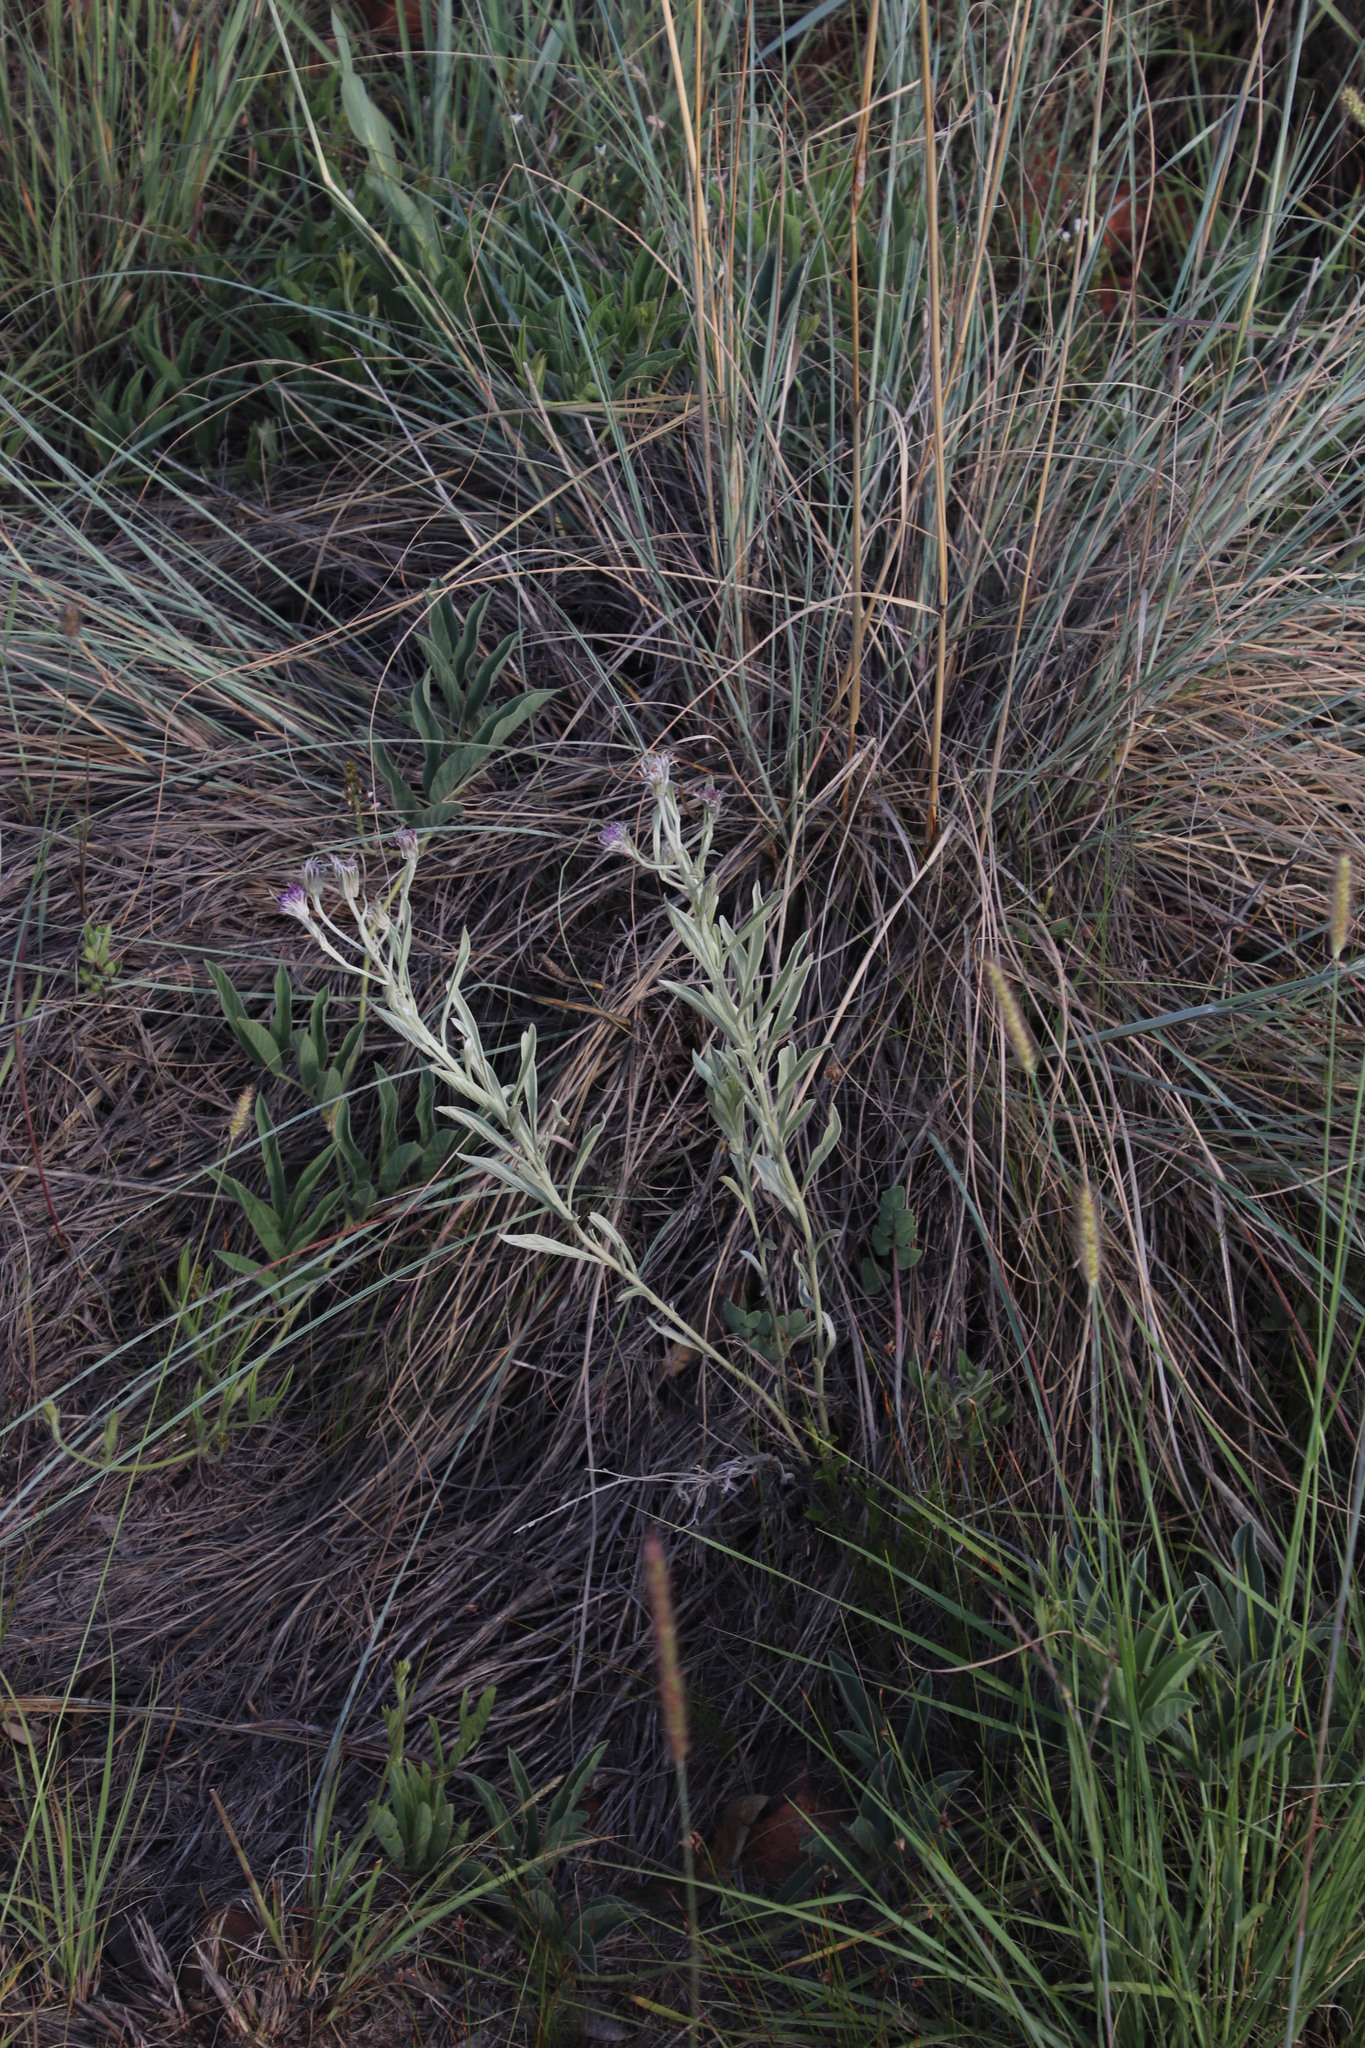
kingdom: Plantae
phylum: Tracheophyta
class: Magnoliopsida
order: Asterales
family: Asteraceae
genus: Hilliardiella
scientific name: Hilliardiella aristata
